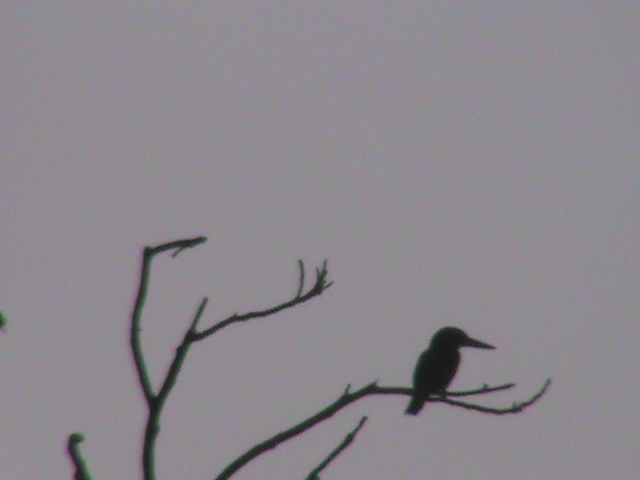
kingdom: Animalia
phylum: Chordata
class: Aves
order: Coraciiformes
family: Alcedinidae
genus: Halcyon
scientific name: Halcyon smyrnensis
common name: White-throated kingfisher
